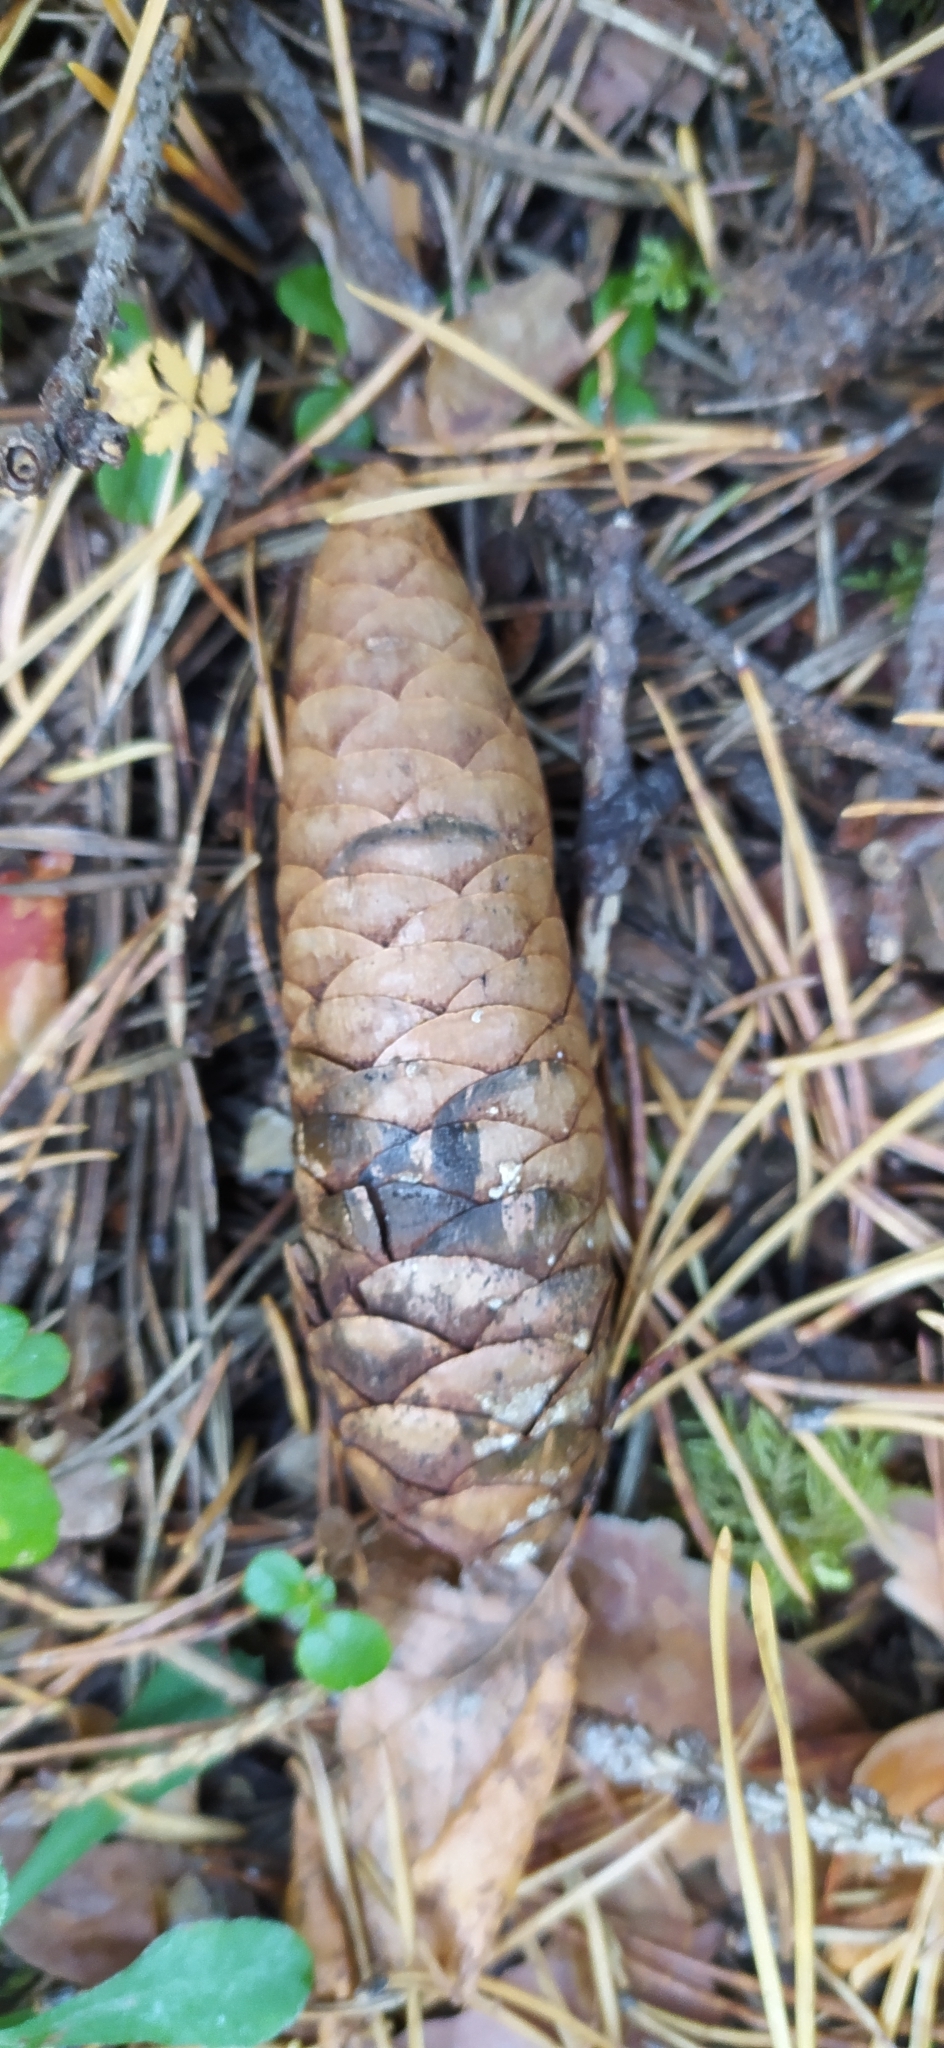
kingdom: Plantae
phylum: Tracheophyta
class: Pinopsida
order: Pinales
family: Pinaceae
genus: Picea
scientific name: Picea obovata
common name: Siberian spruce
